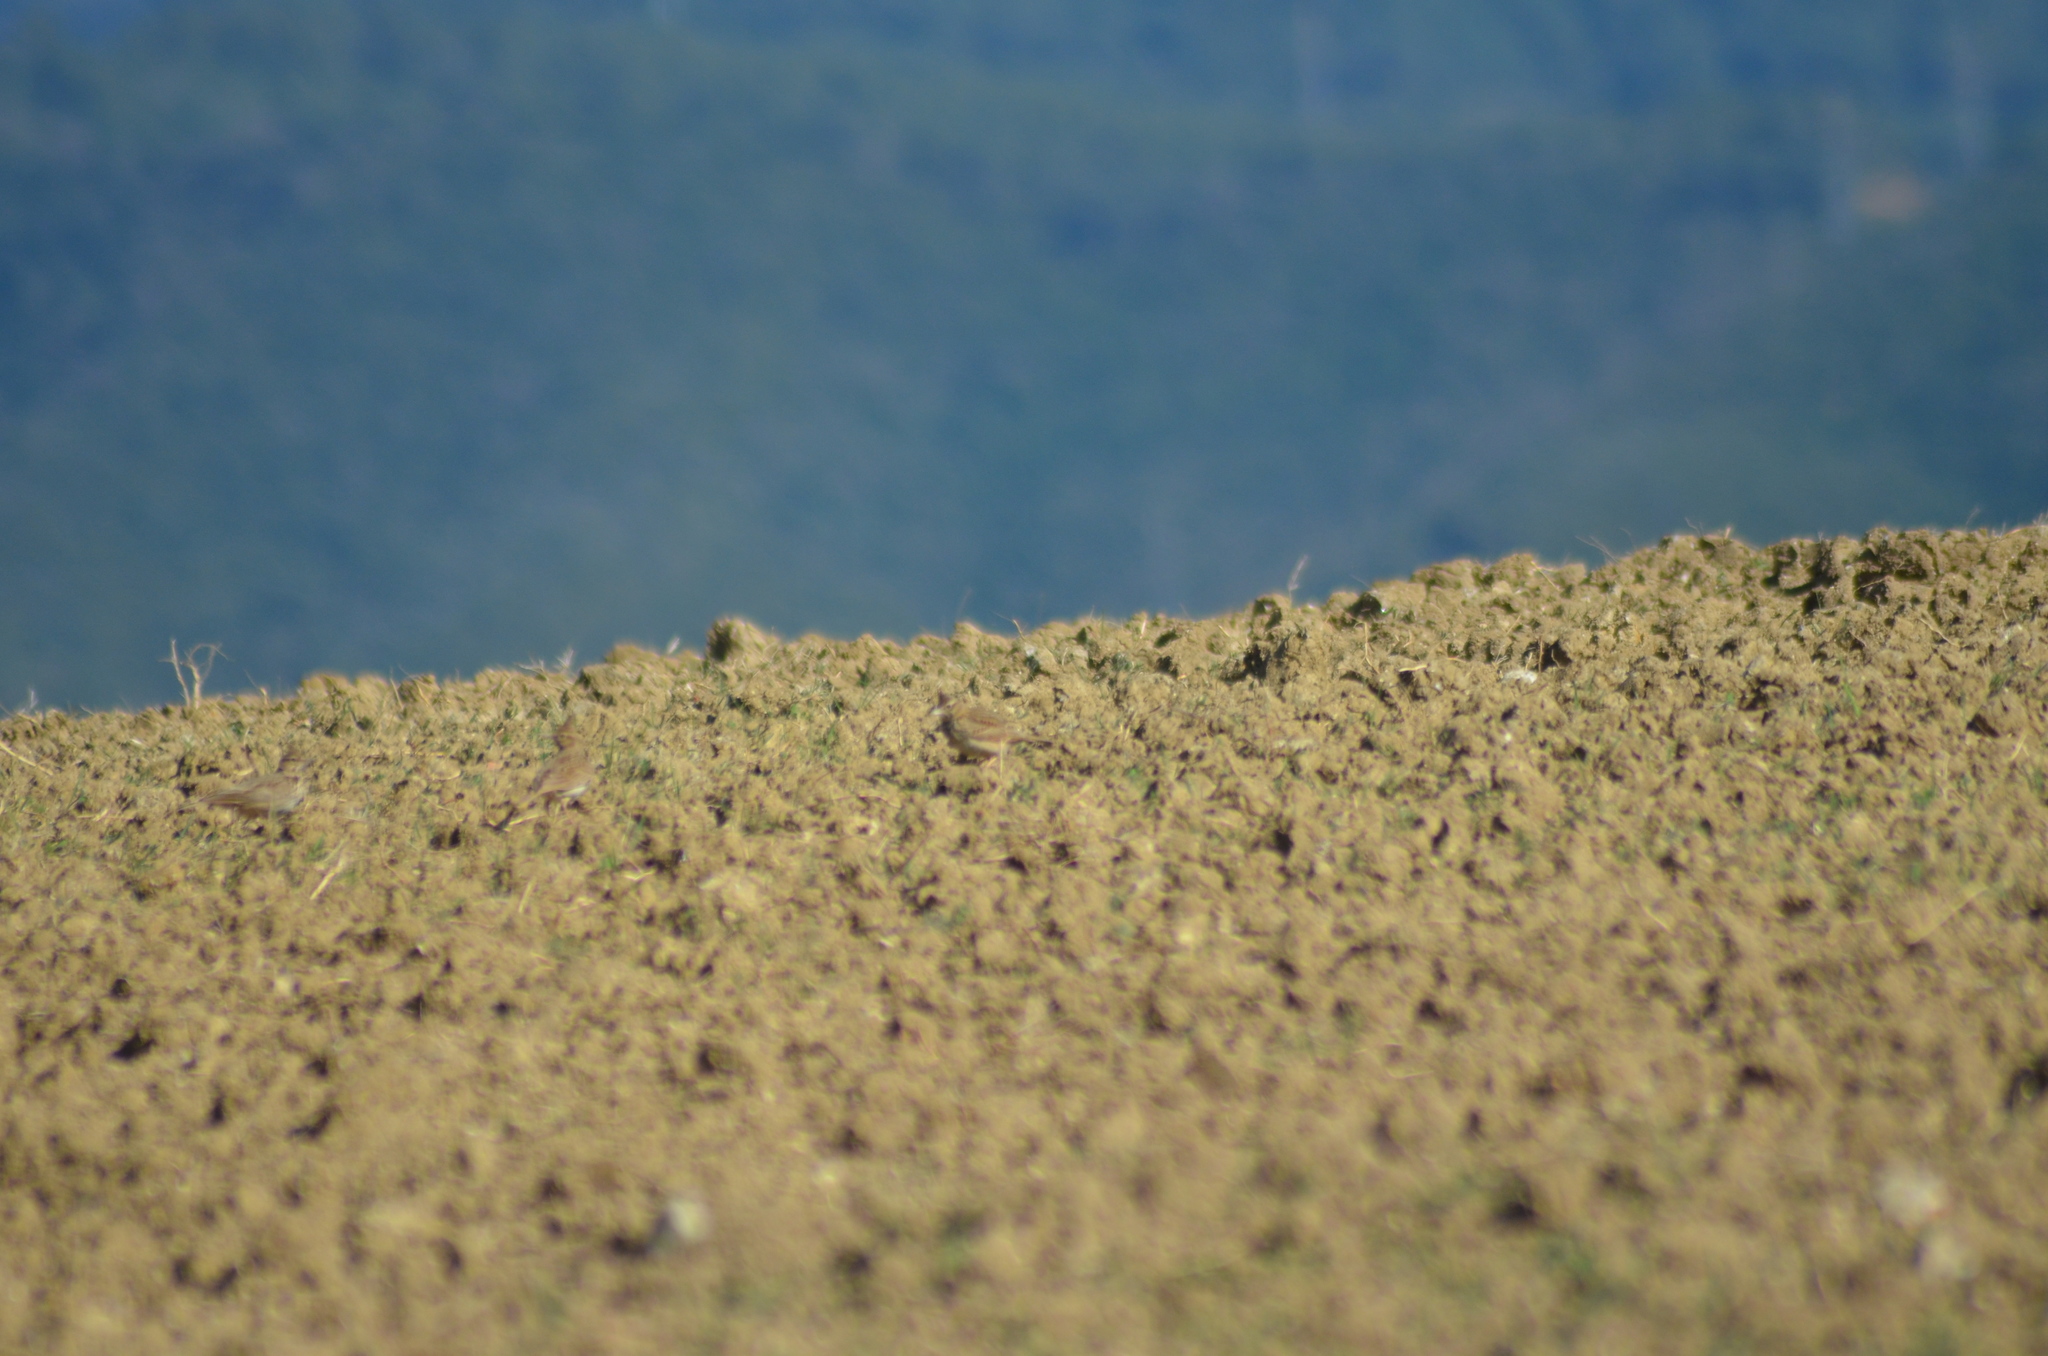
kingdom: Animalia
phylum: Chordata
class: Aves
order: Passeriformes
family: Alaudidae
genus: Galerida
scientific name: Galerida cristata
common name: Crested lark
